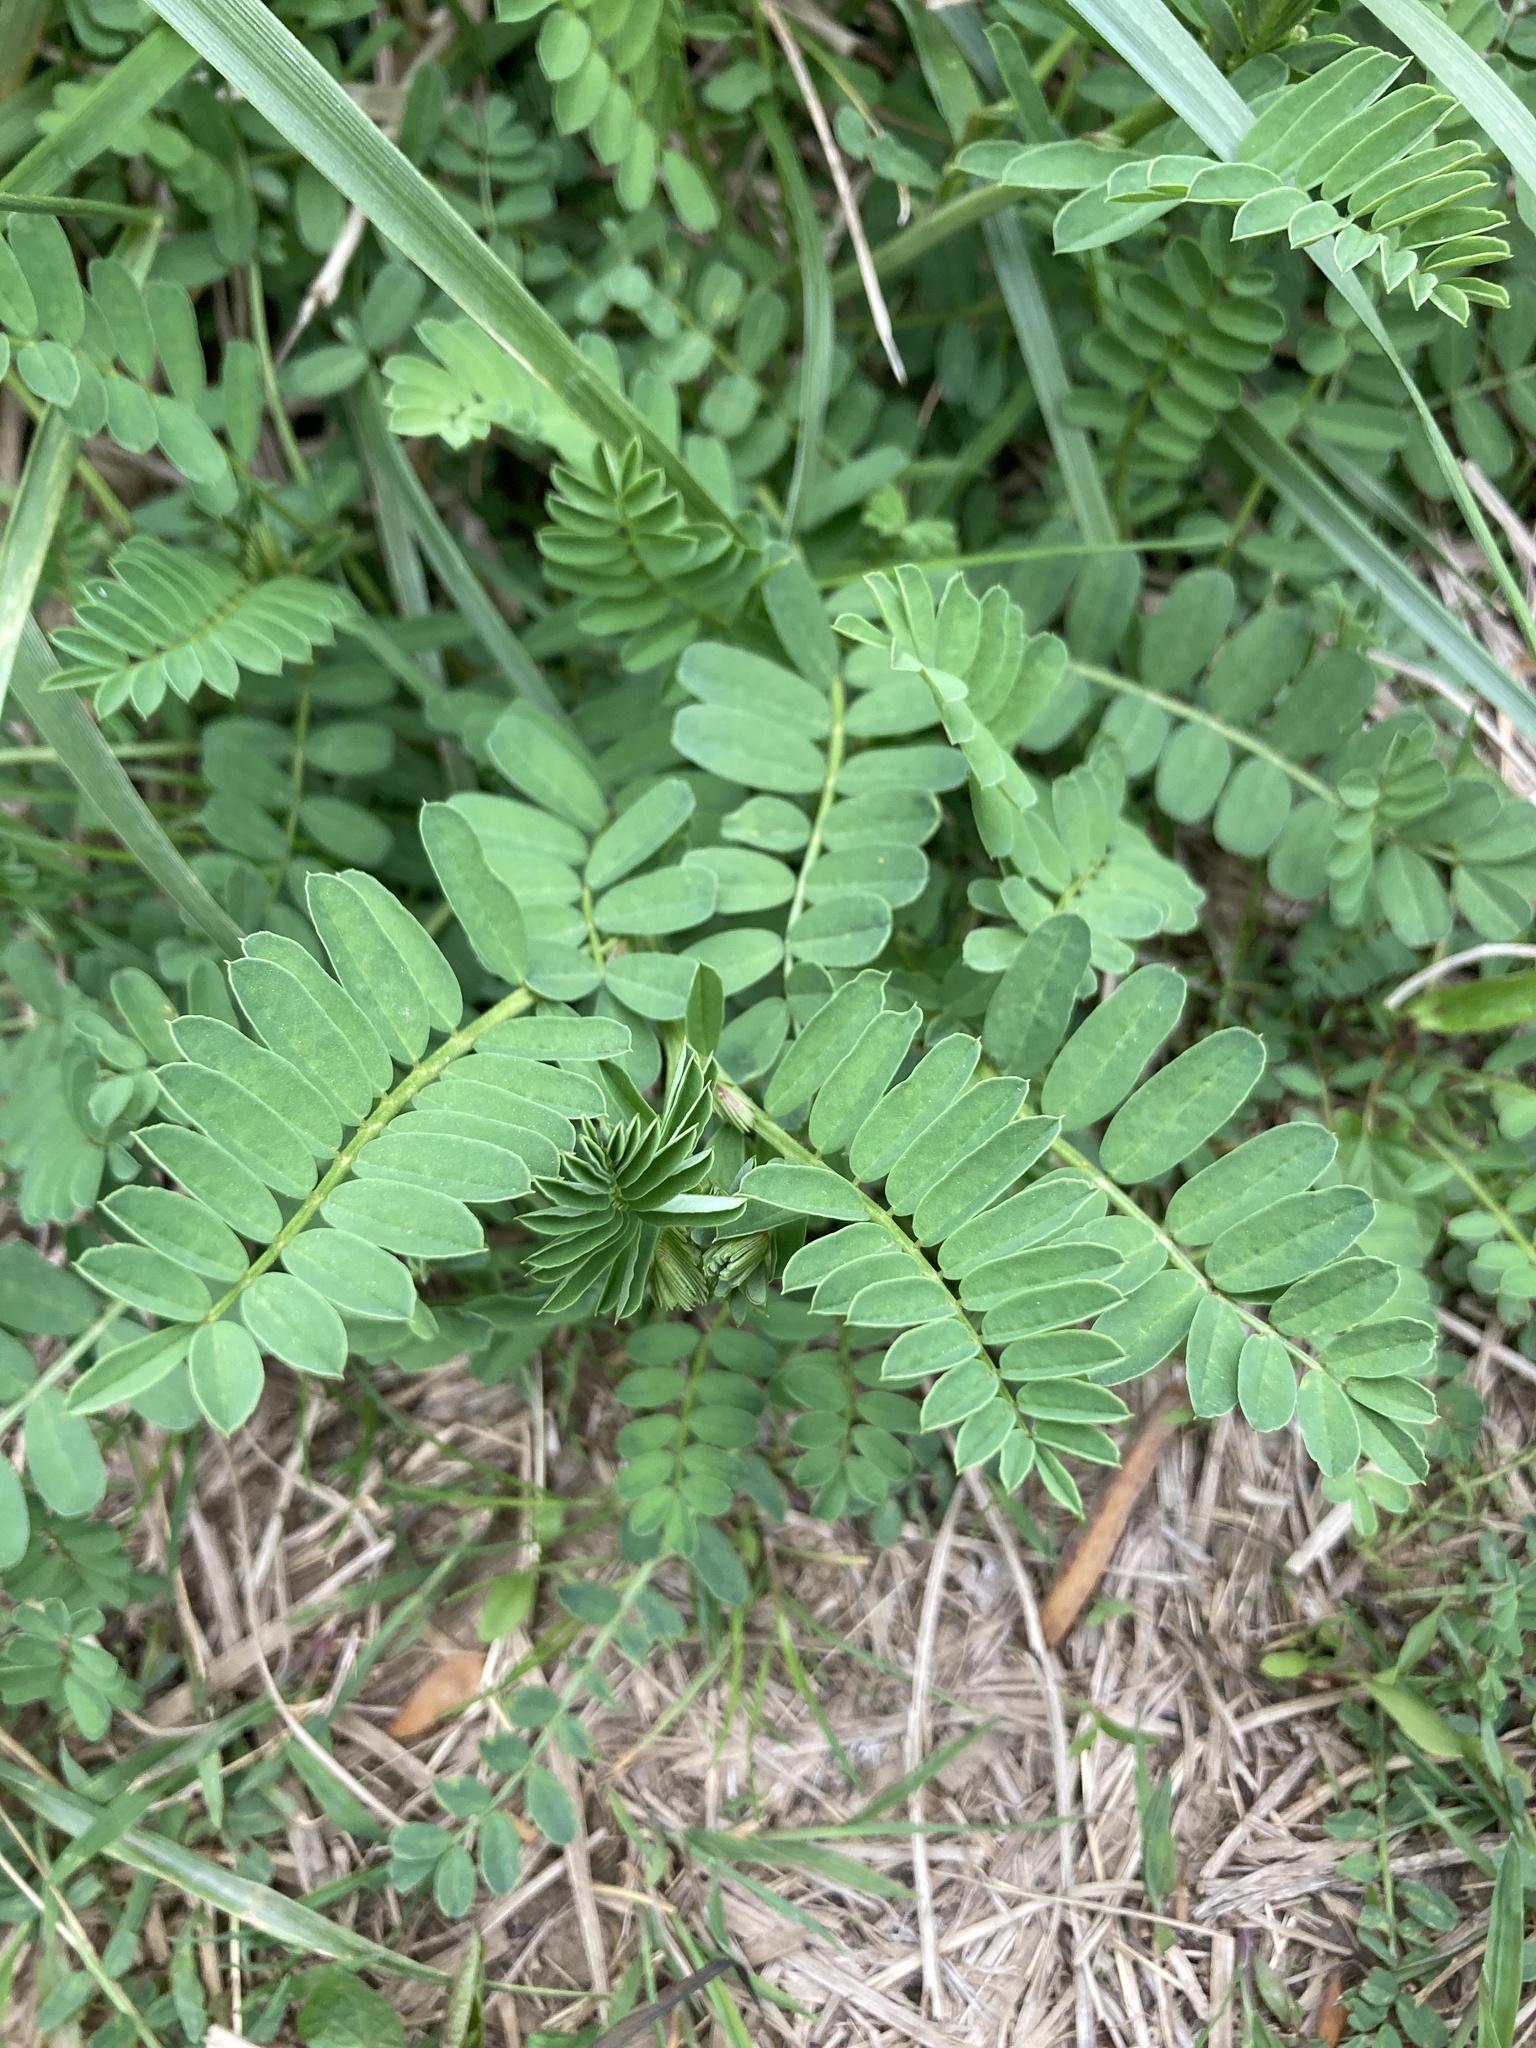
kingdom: Plantae
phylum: Tracheophyta
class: Magnoliopsida
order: Fabales
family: Fabaceae
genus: Coronilla
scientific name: Coronilla varia
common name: Crownvetch
